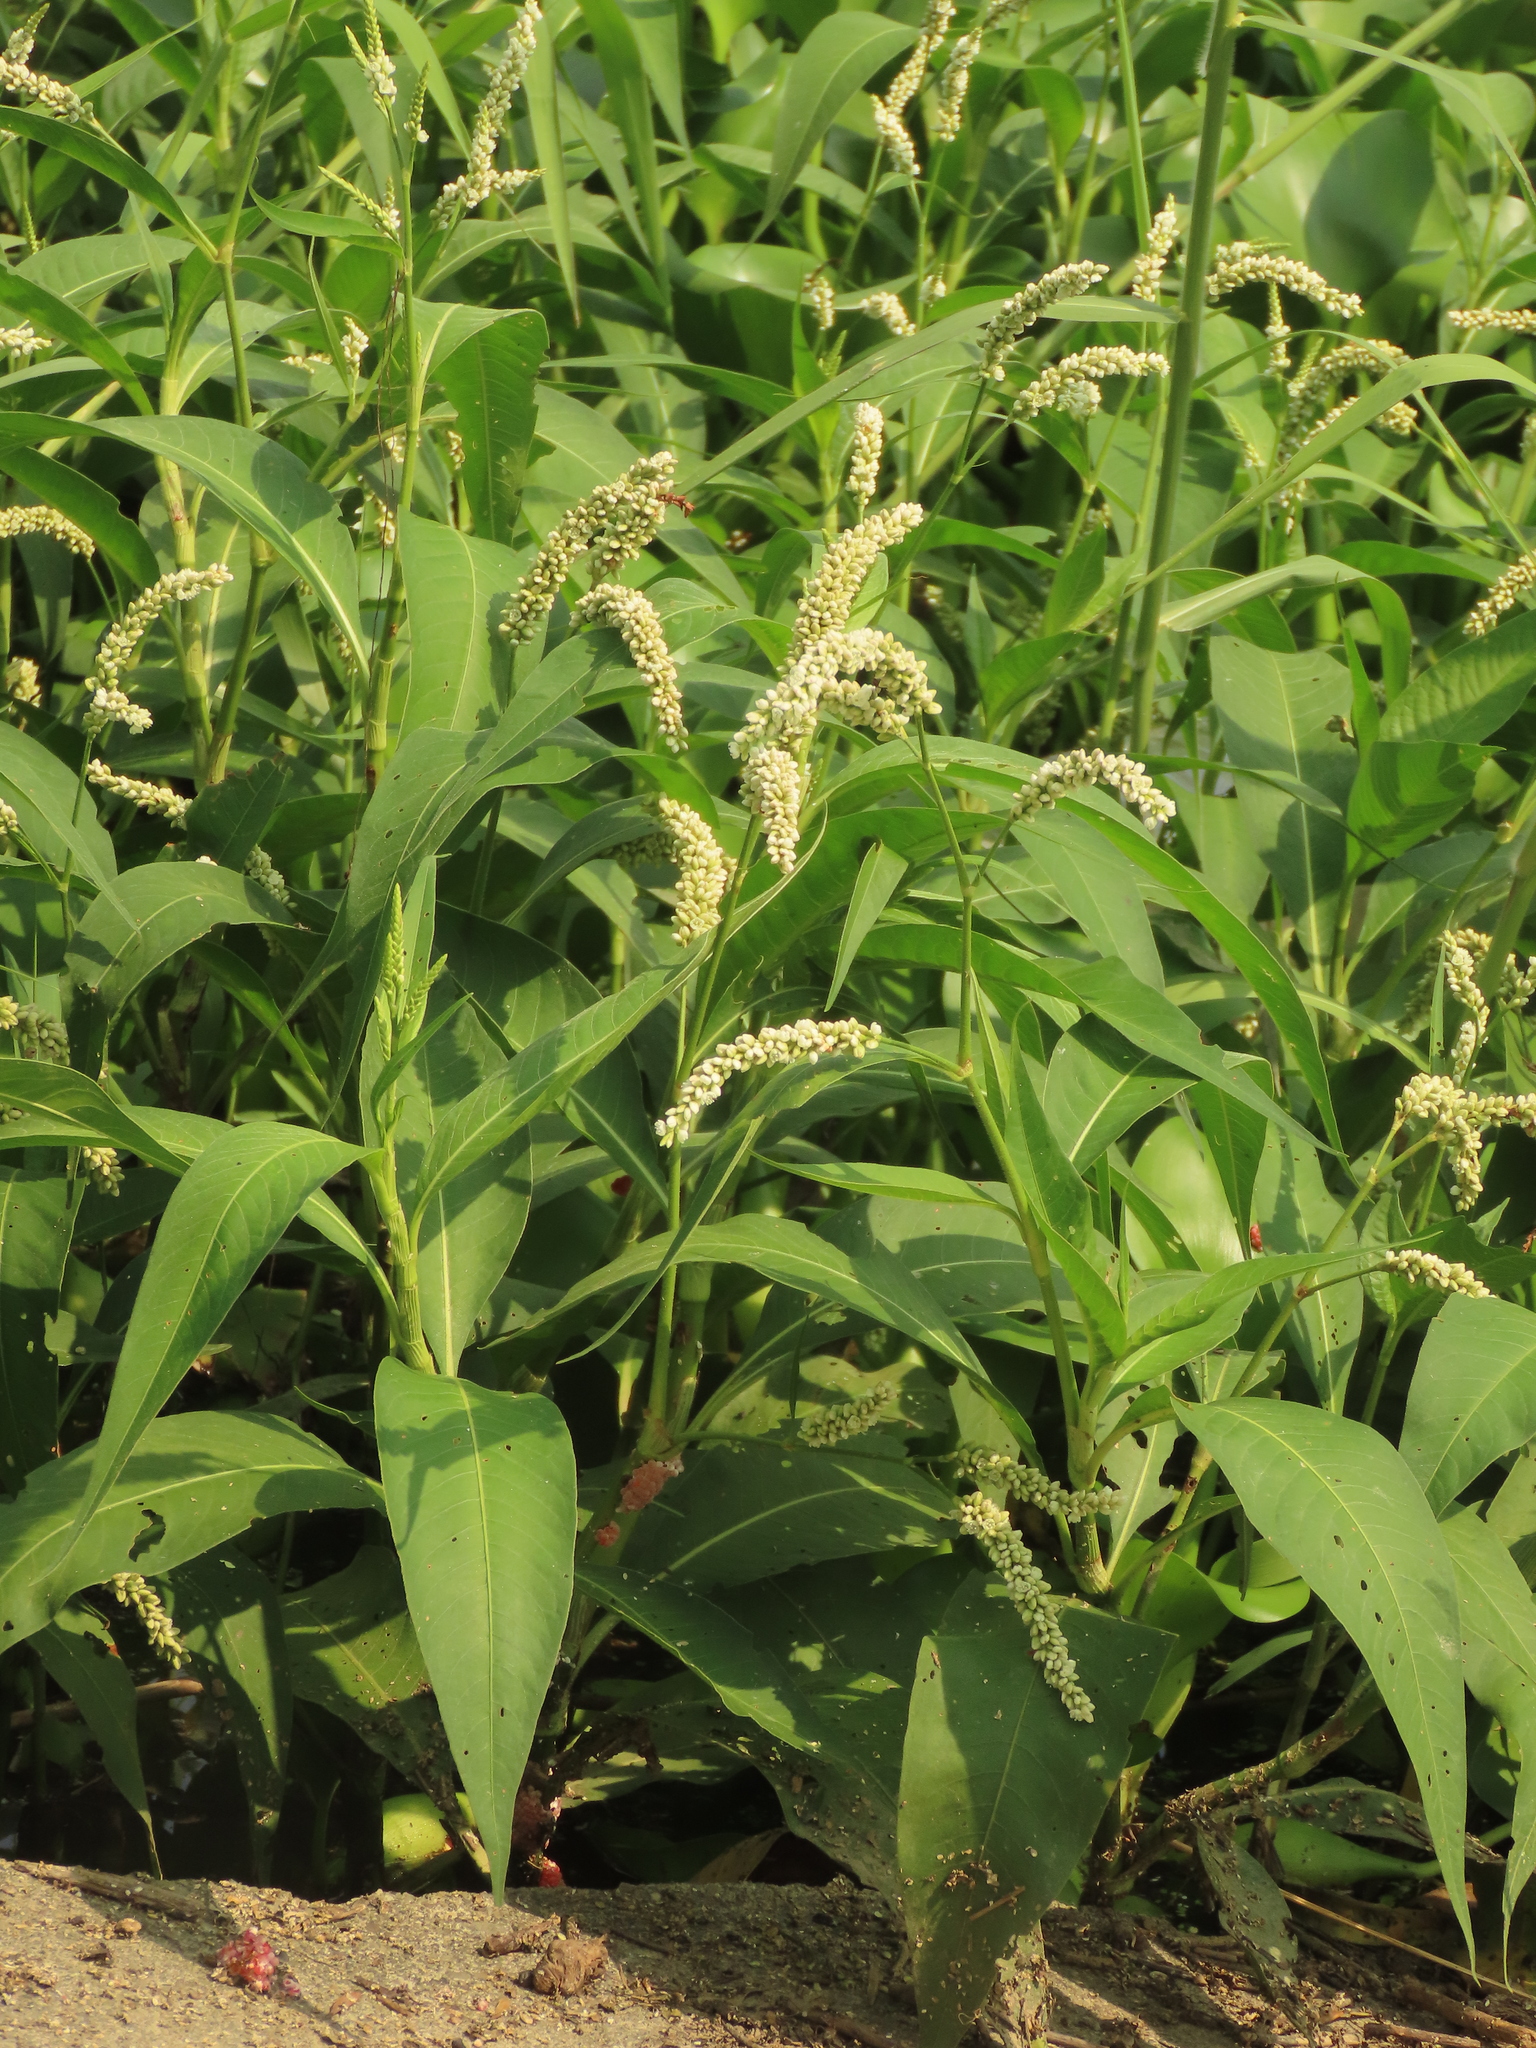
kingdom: Plantae
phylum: Tracheophyta
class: Magnoliopsida
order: Caryophyllales
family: Polygonaceae
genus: Persicaria
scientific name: Persicaria barbata
